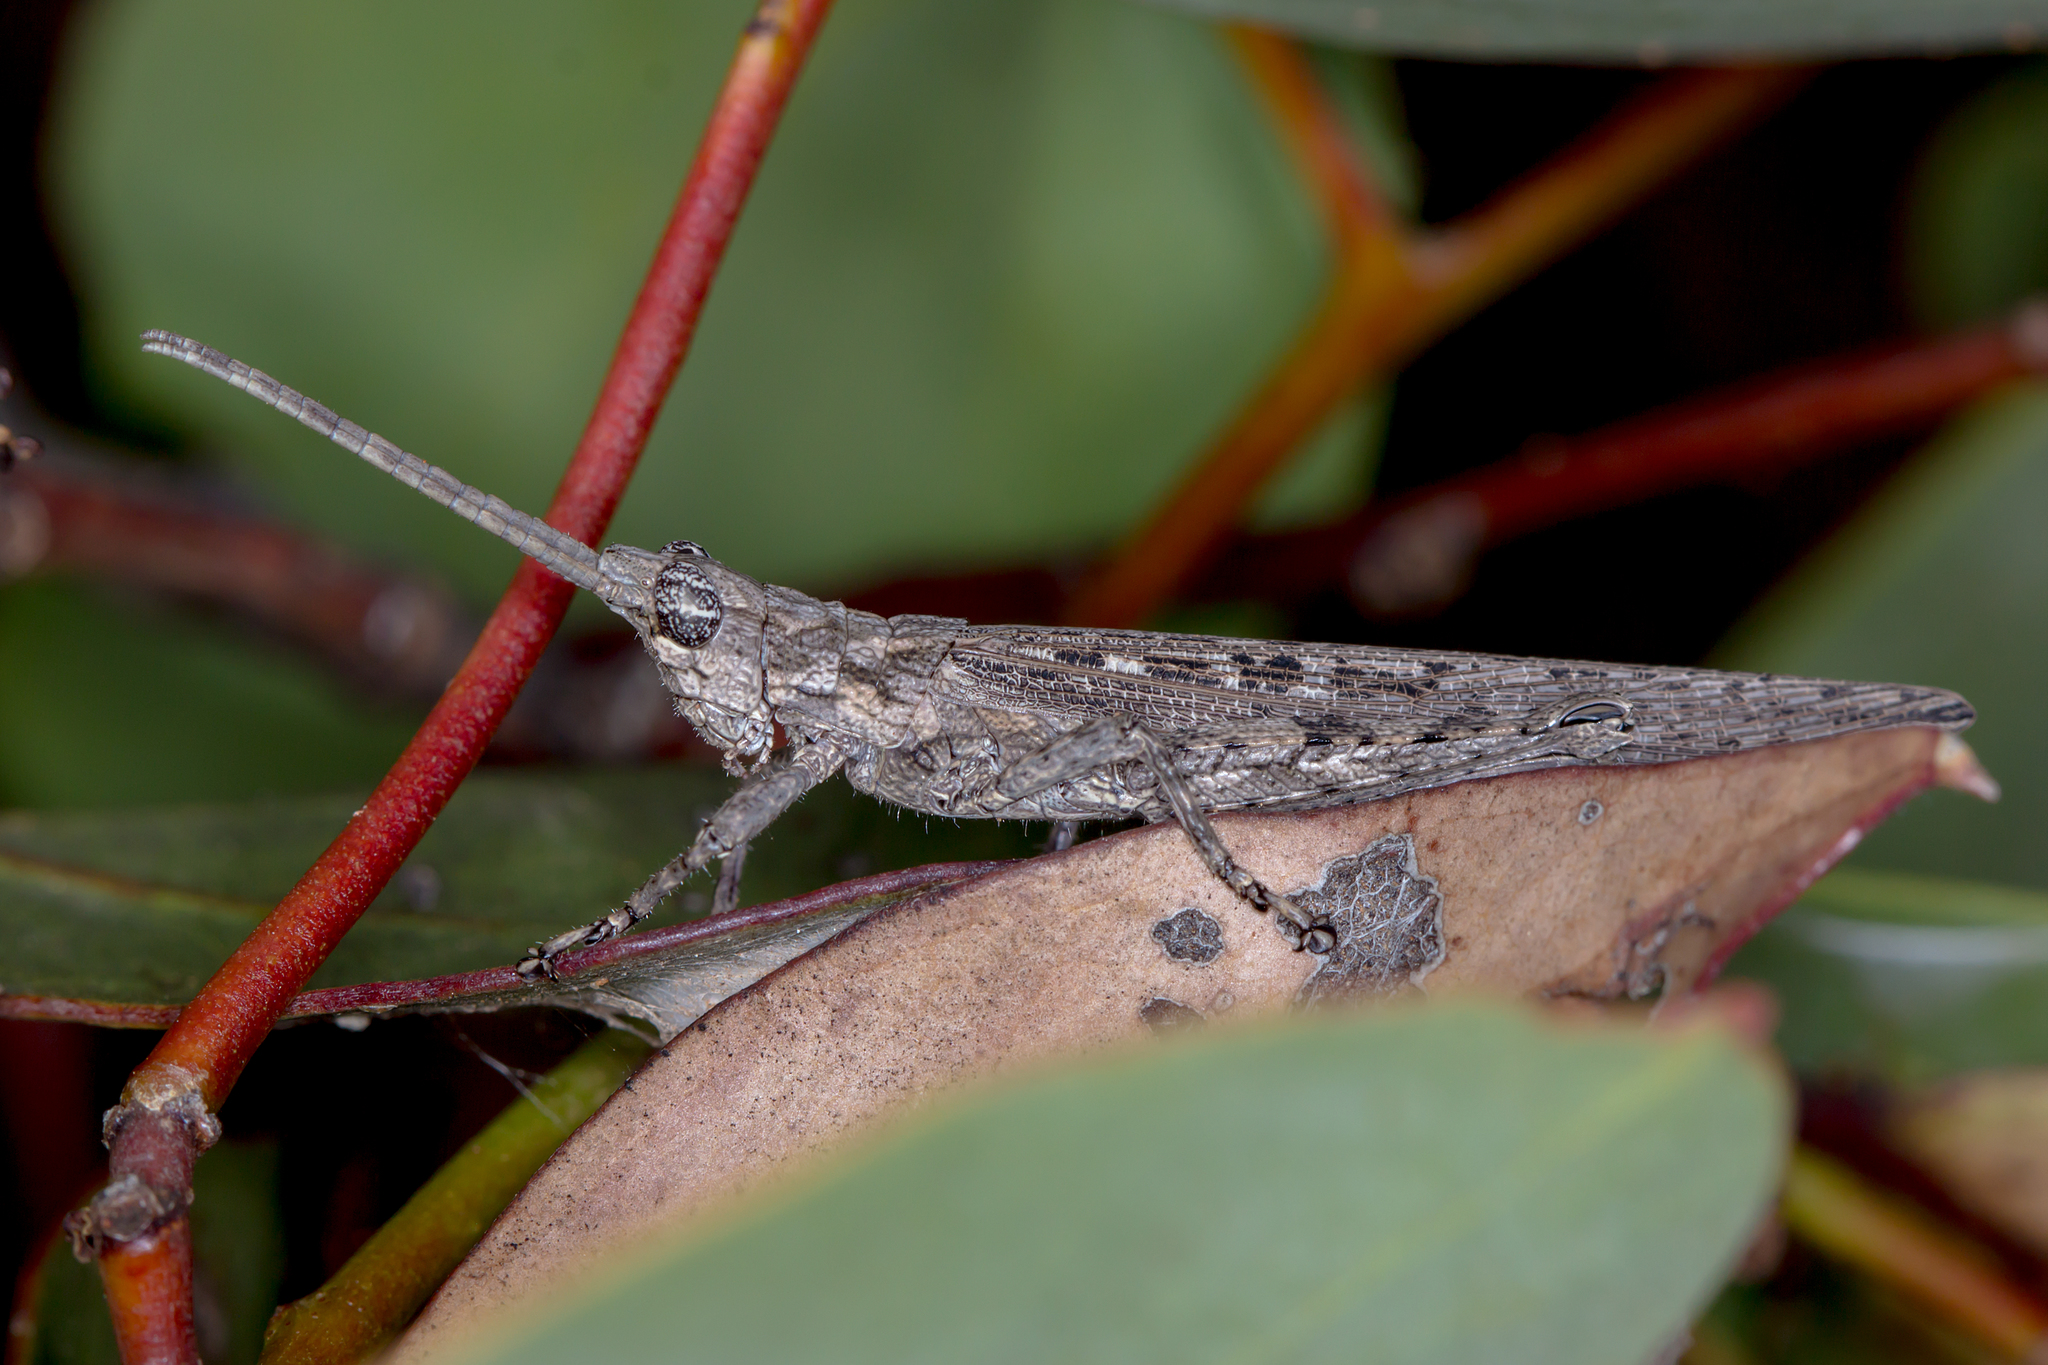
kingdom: Animalia
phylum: Arthropoda
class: Insecta
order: Orthoptera
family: Acrididae
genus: Coryphistes
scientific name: Coryphistes ruricola
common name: Bark-mimicking grasshopper
